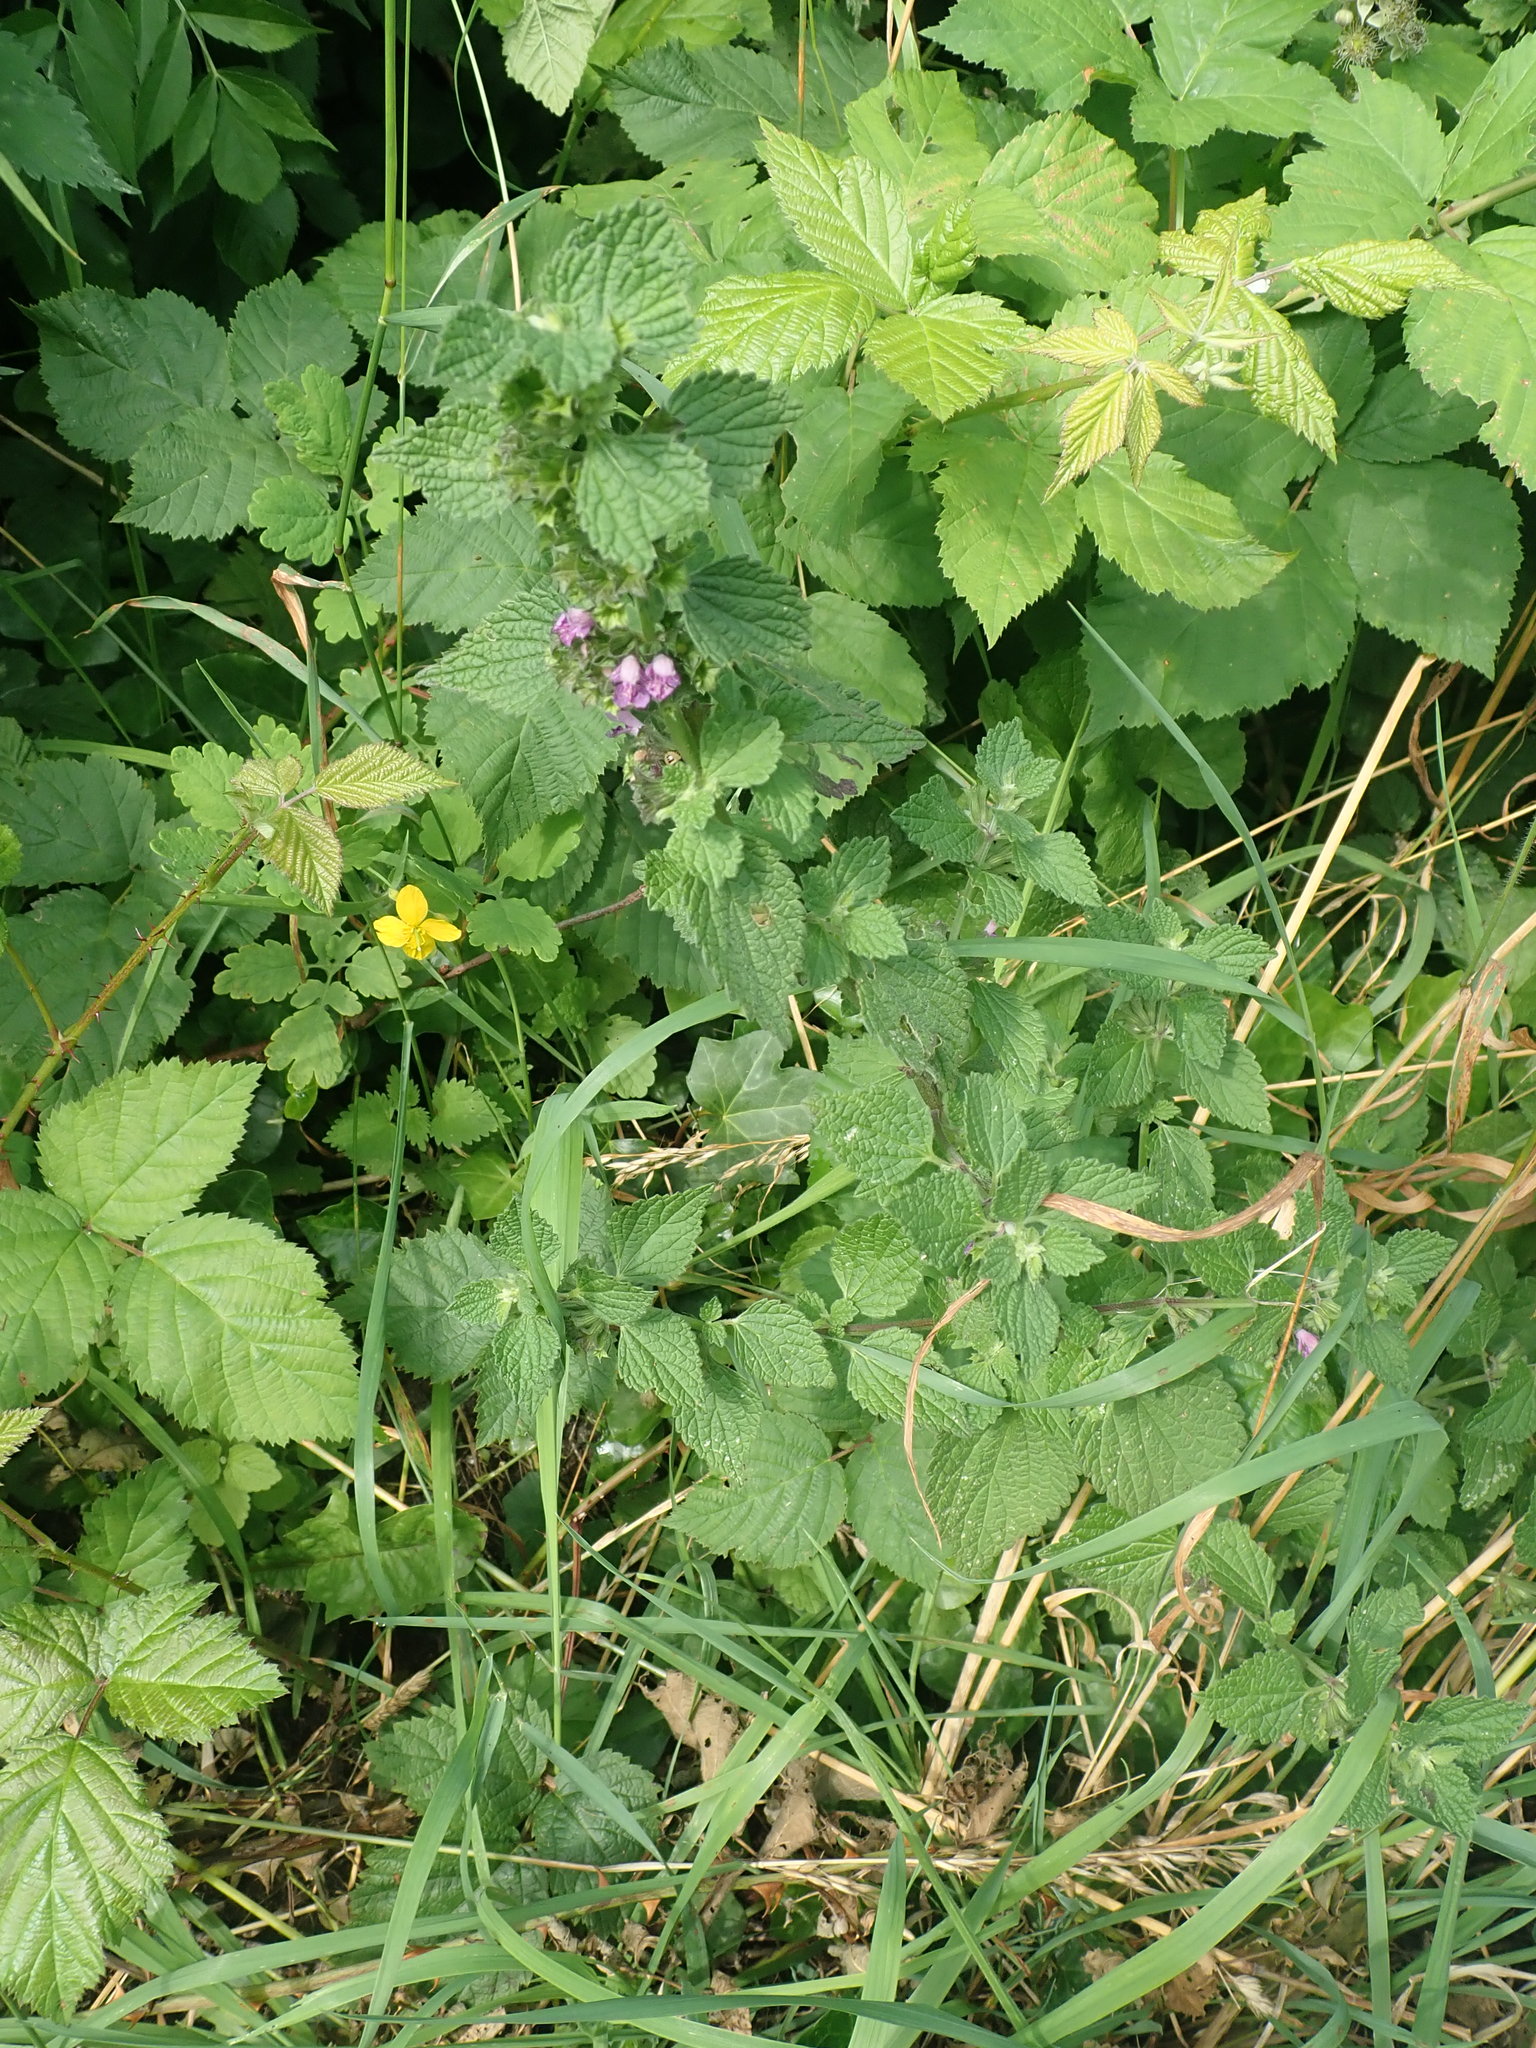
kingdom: Plantae
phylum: Tracheophyta
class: Magnoliopsida
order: Lamiales
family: Lamiaceae
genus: Ballota
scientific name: Ballota nigra
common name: Black horehound
